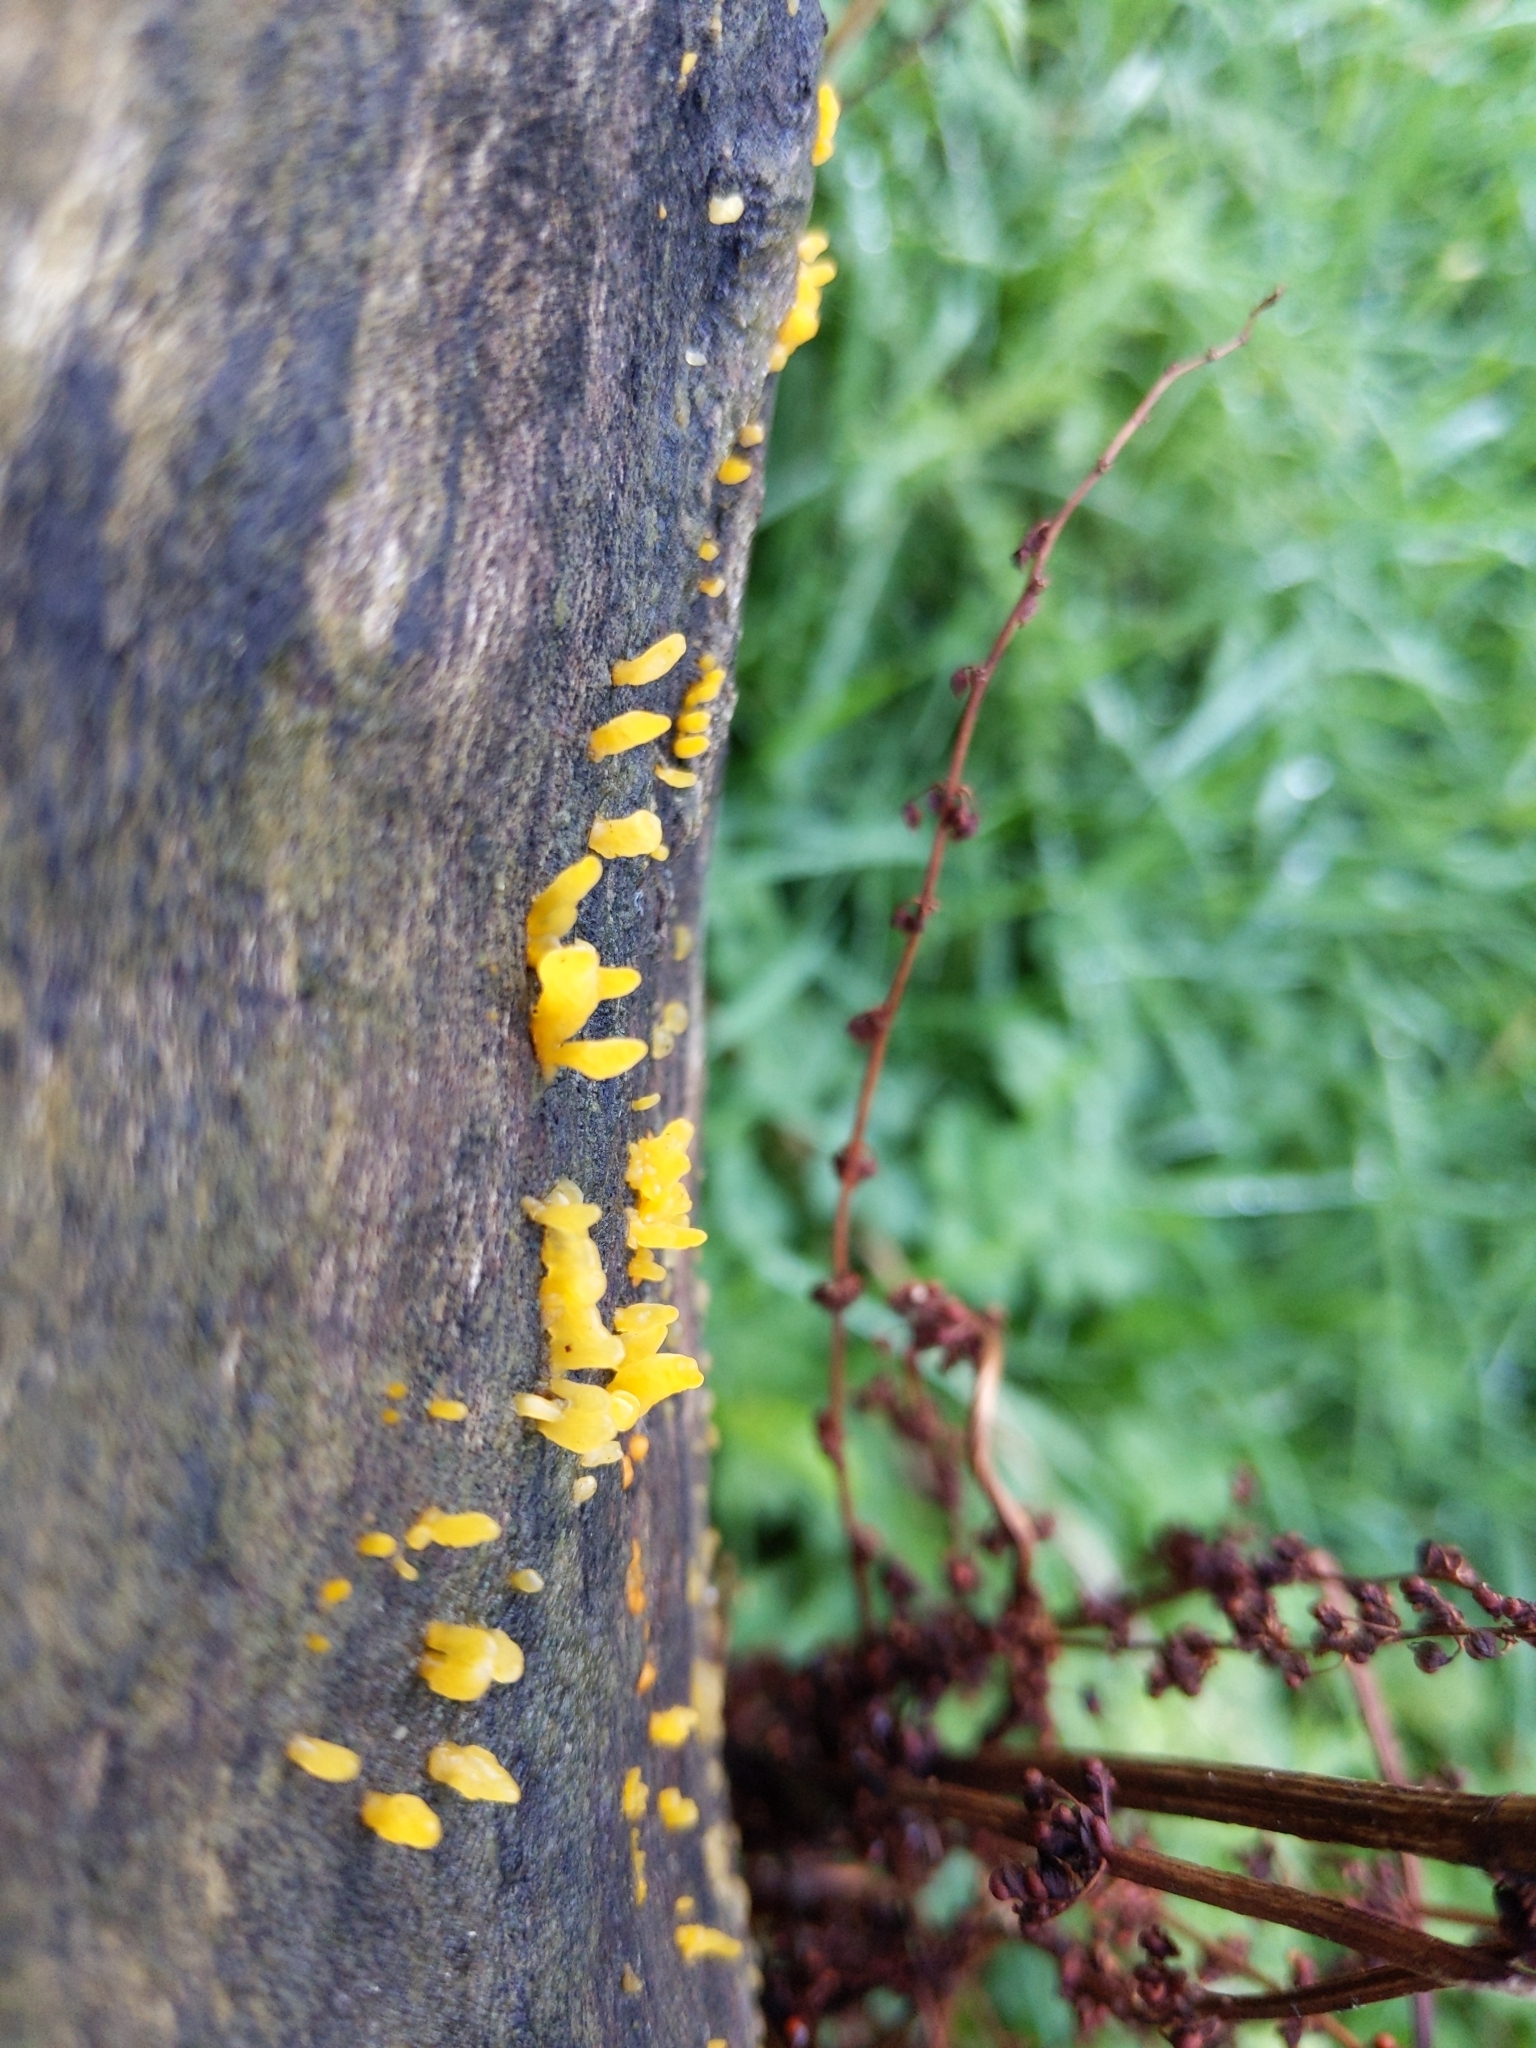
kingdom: Fungi
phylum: Basidiomycota
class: Dacrymycetes
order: Dacrymycetales
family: Dacrymycetaceae
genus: Calocera
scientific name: Calocera cornea
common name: Small stagshorn
